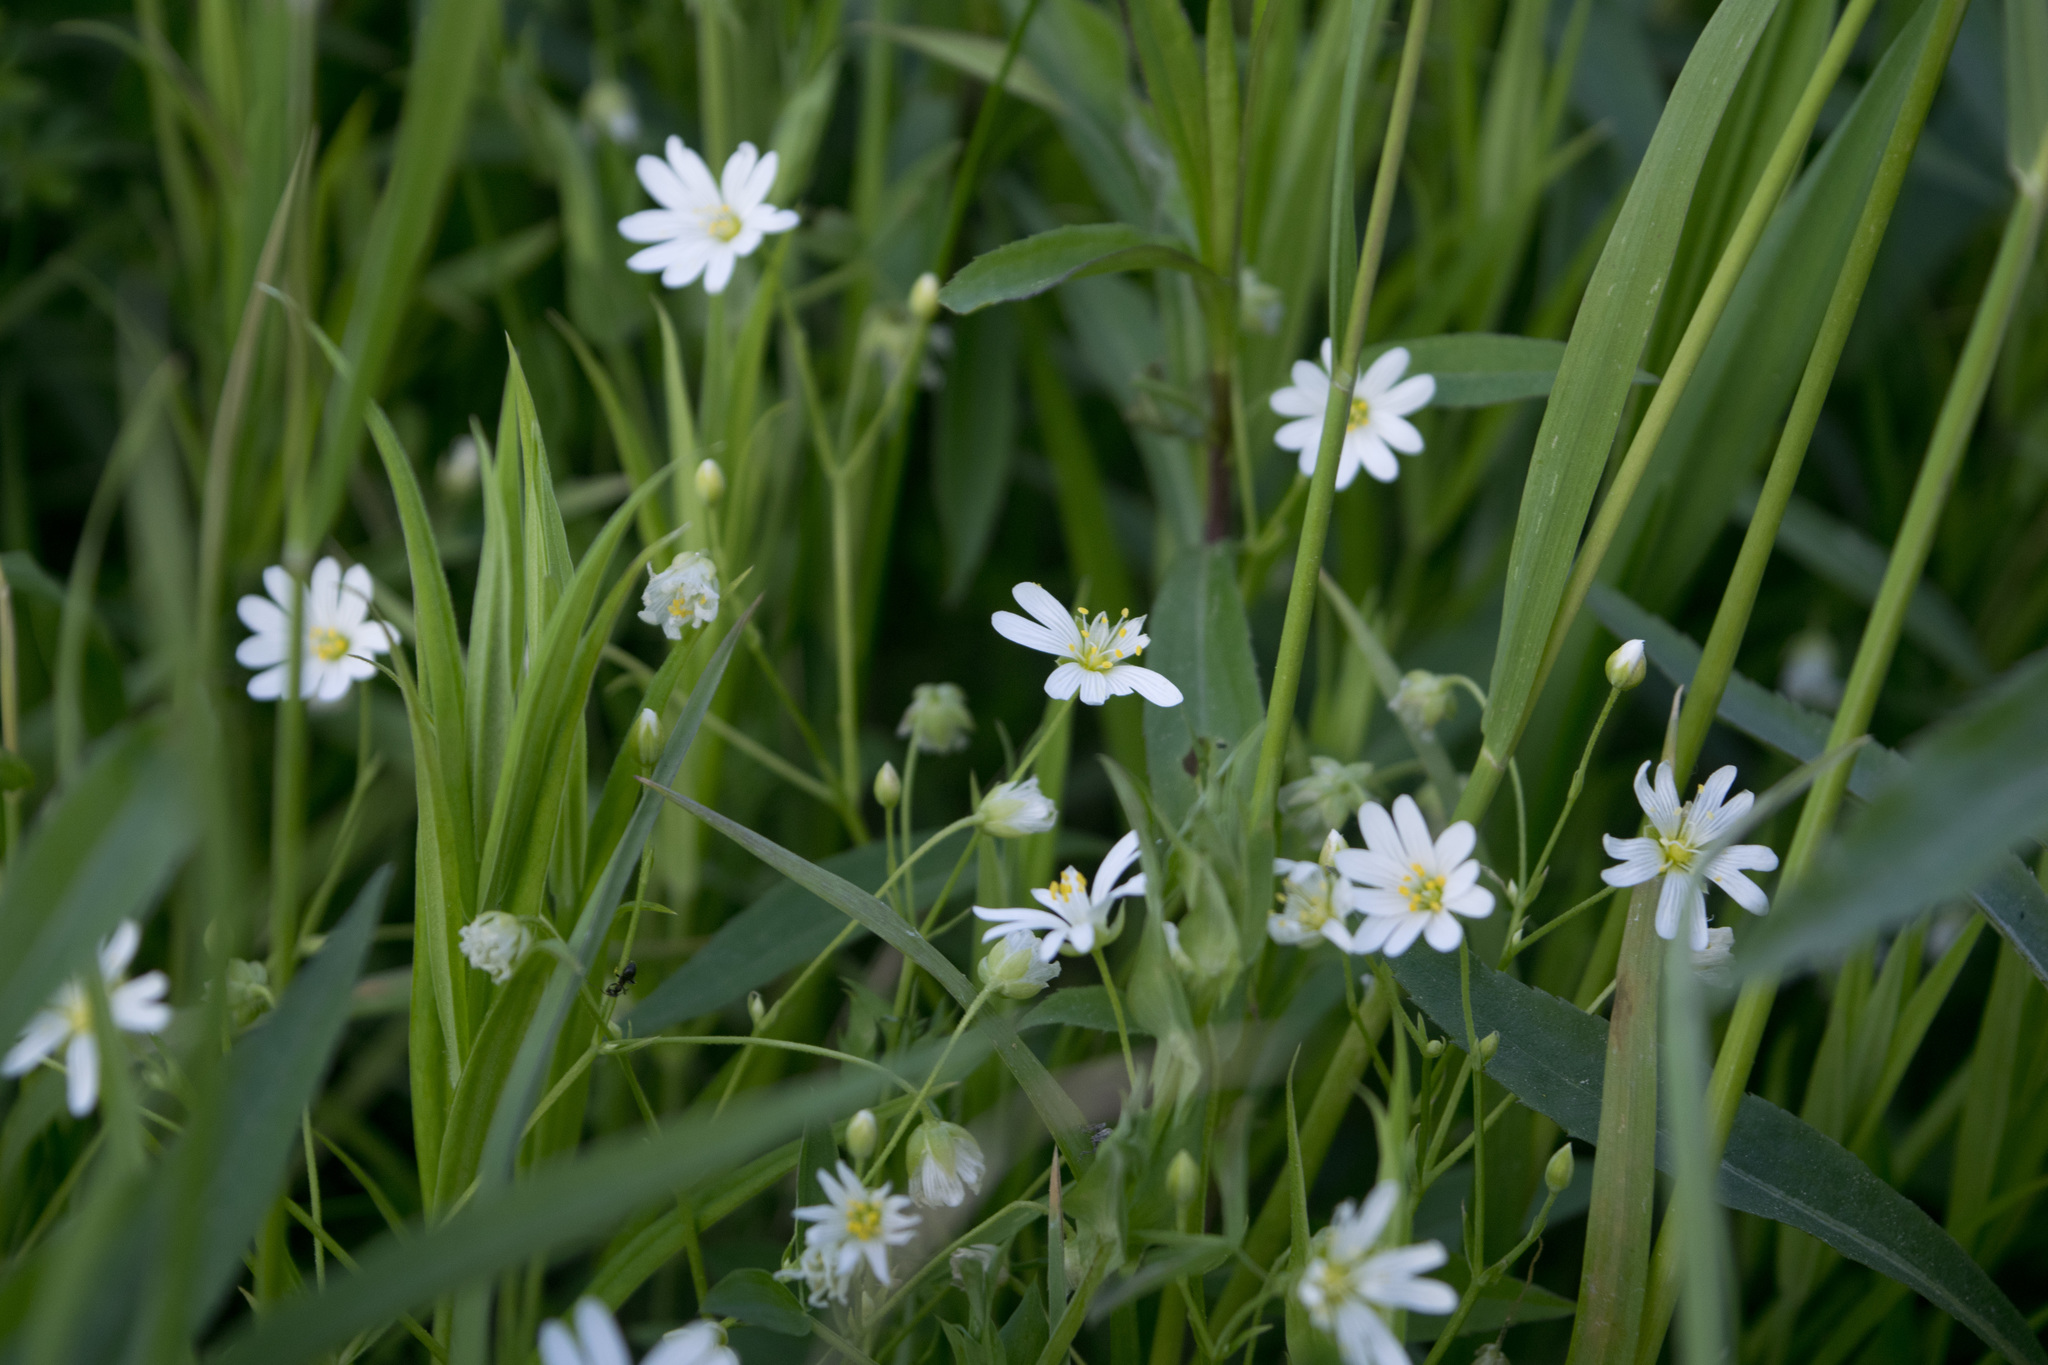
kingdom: Plantae
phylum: Tracheophyta
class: Magnoliopsida
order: Caryophyllales
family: Caryophyllaceae
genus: Rabelera
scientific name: Rabelera holostea
